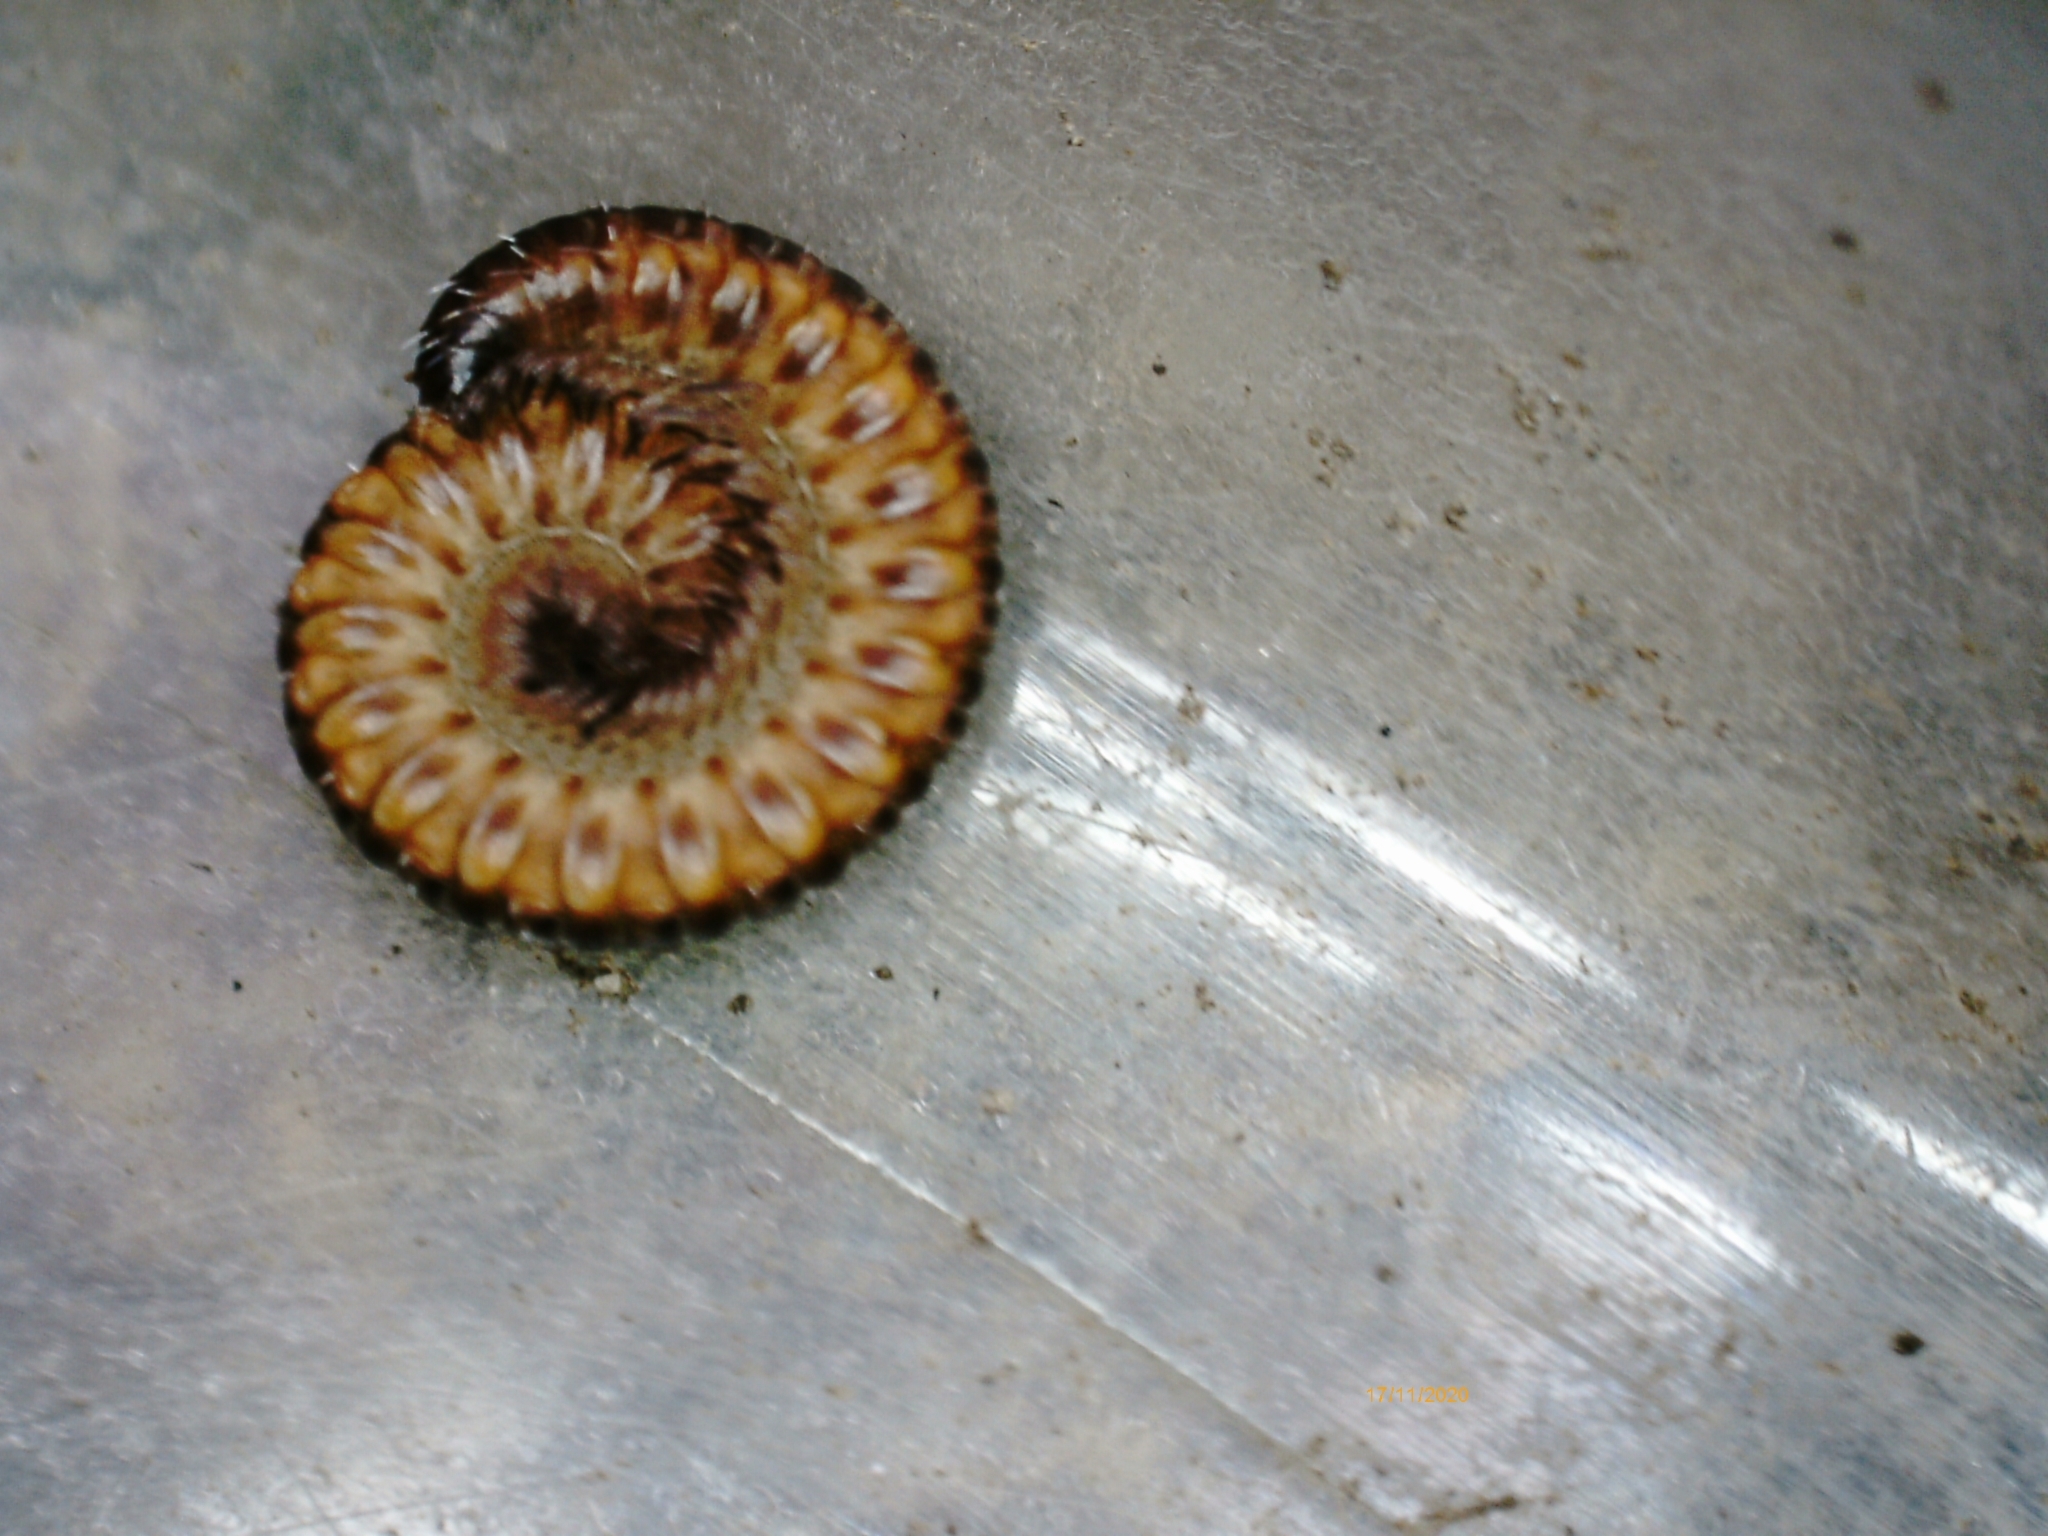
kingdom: Animalia
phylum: Arthropoda
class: Diplopoda
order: Chordeumatida
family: Craspedosomatidae
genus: Nanogona
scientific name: Nanogona polydesmoides
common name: Eyed flat-backed millipede
